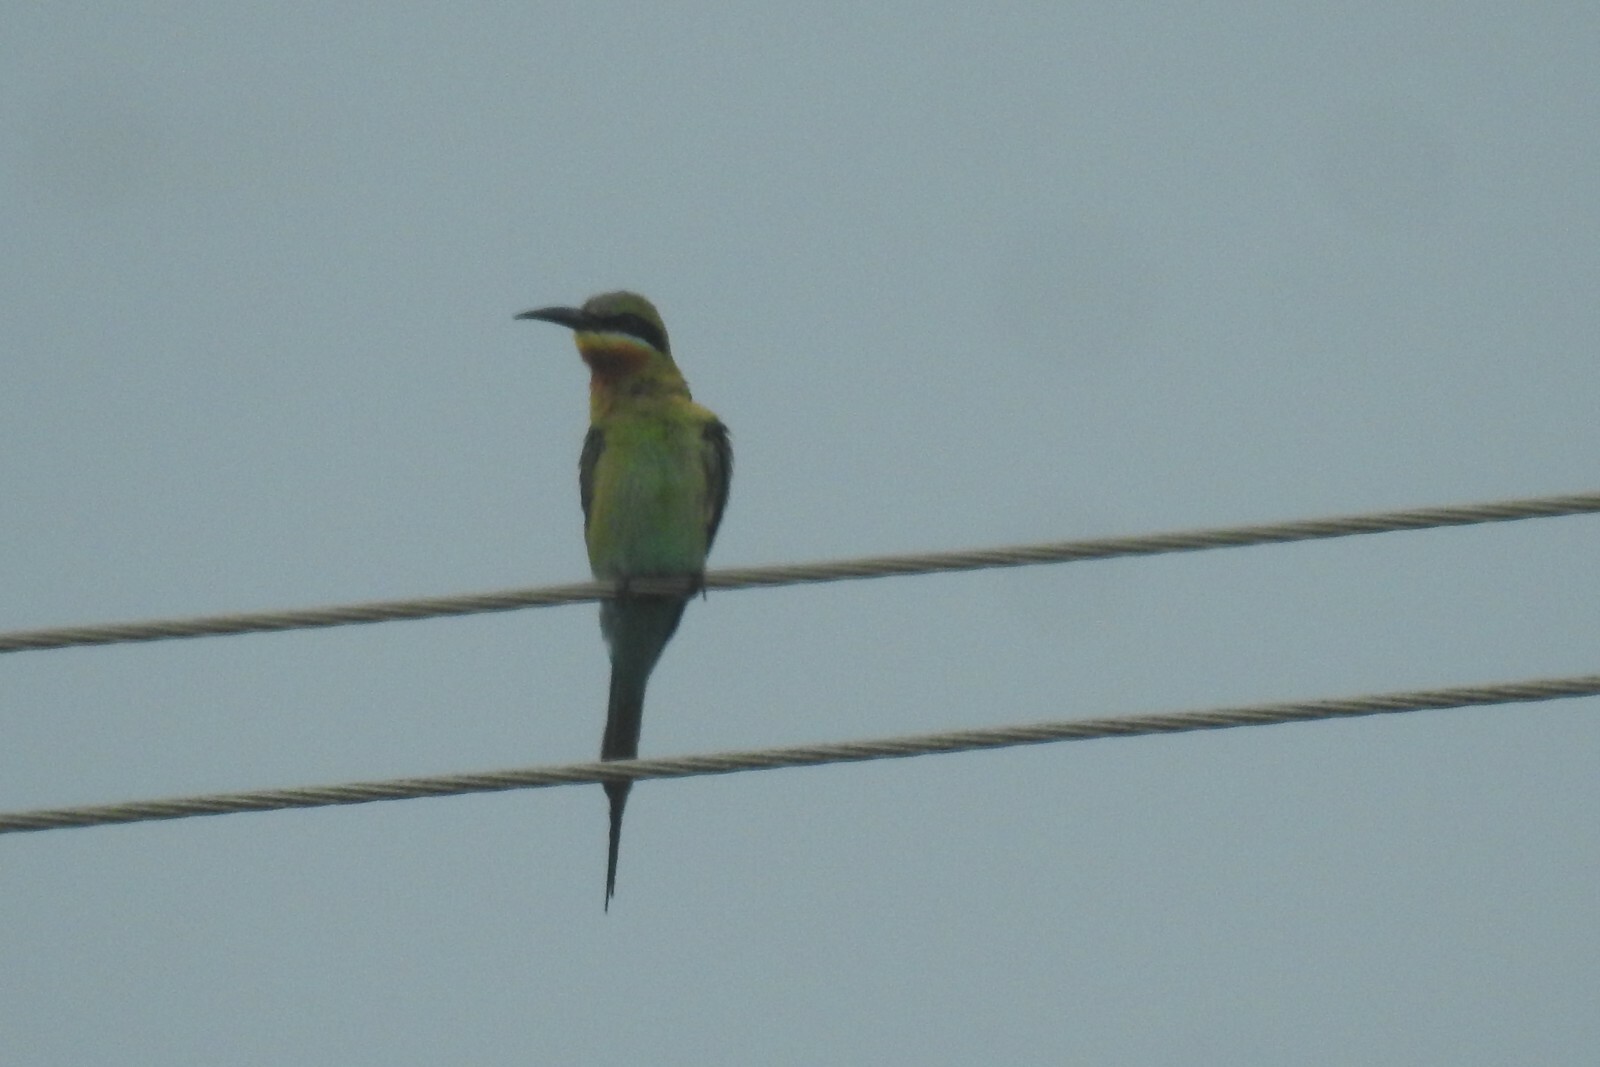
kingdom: Animalia
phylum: Chordata
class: Aves
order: Coraciiformes
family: Meropidae
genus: Merops
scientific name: Merops philippinus
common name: Blue-tailed bee-eater
